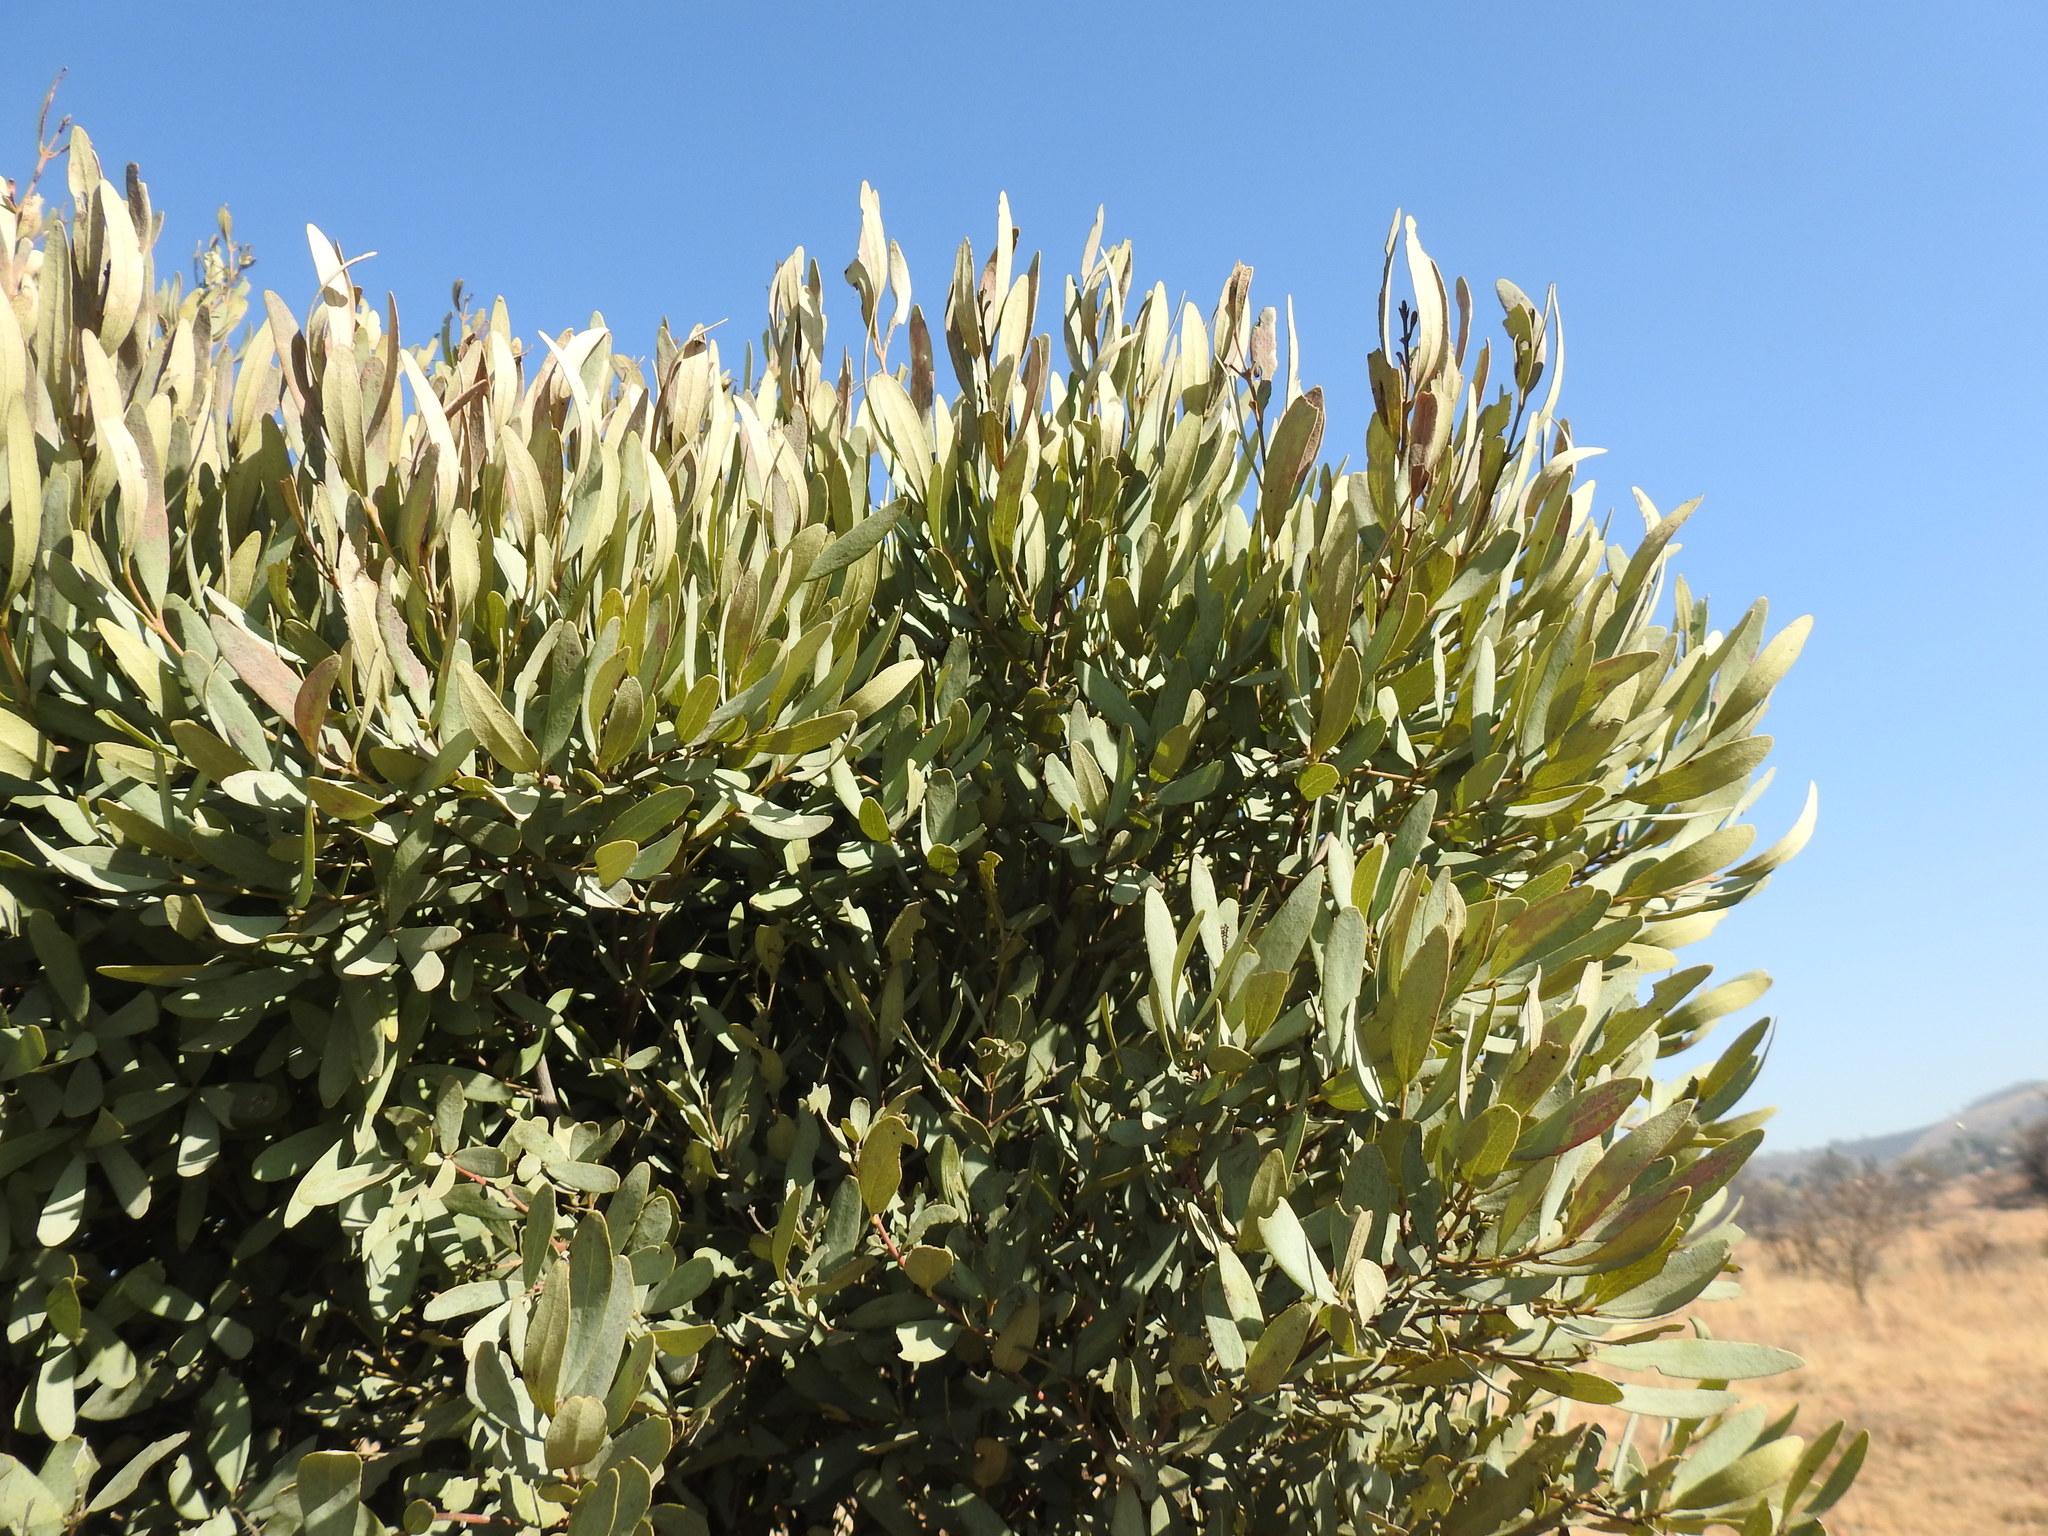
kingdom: Plantae
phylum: Tracheophyta
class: Magnoliopsida
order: Ericales
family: Ebenaceae
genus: Euclea
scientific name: Euclea crispa
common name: Blue guarri
